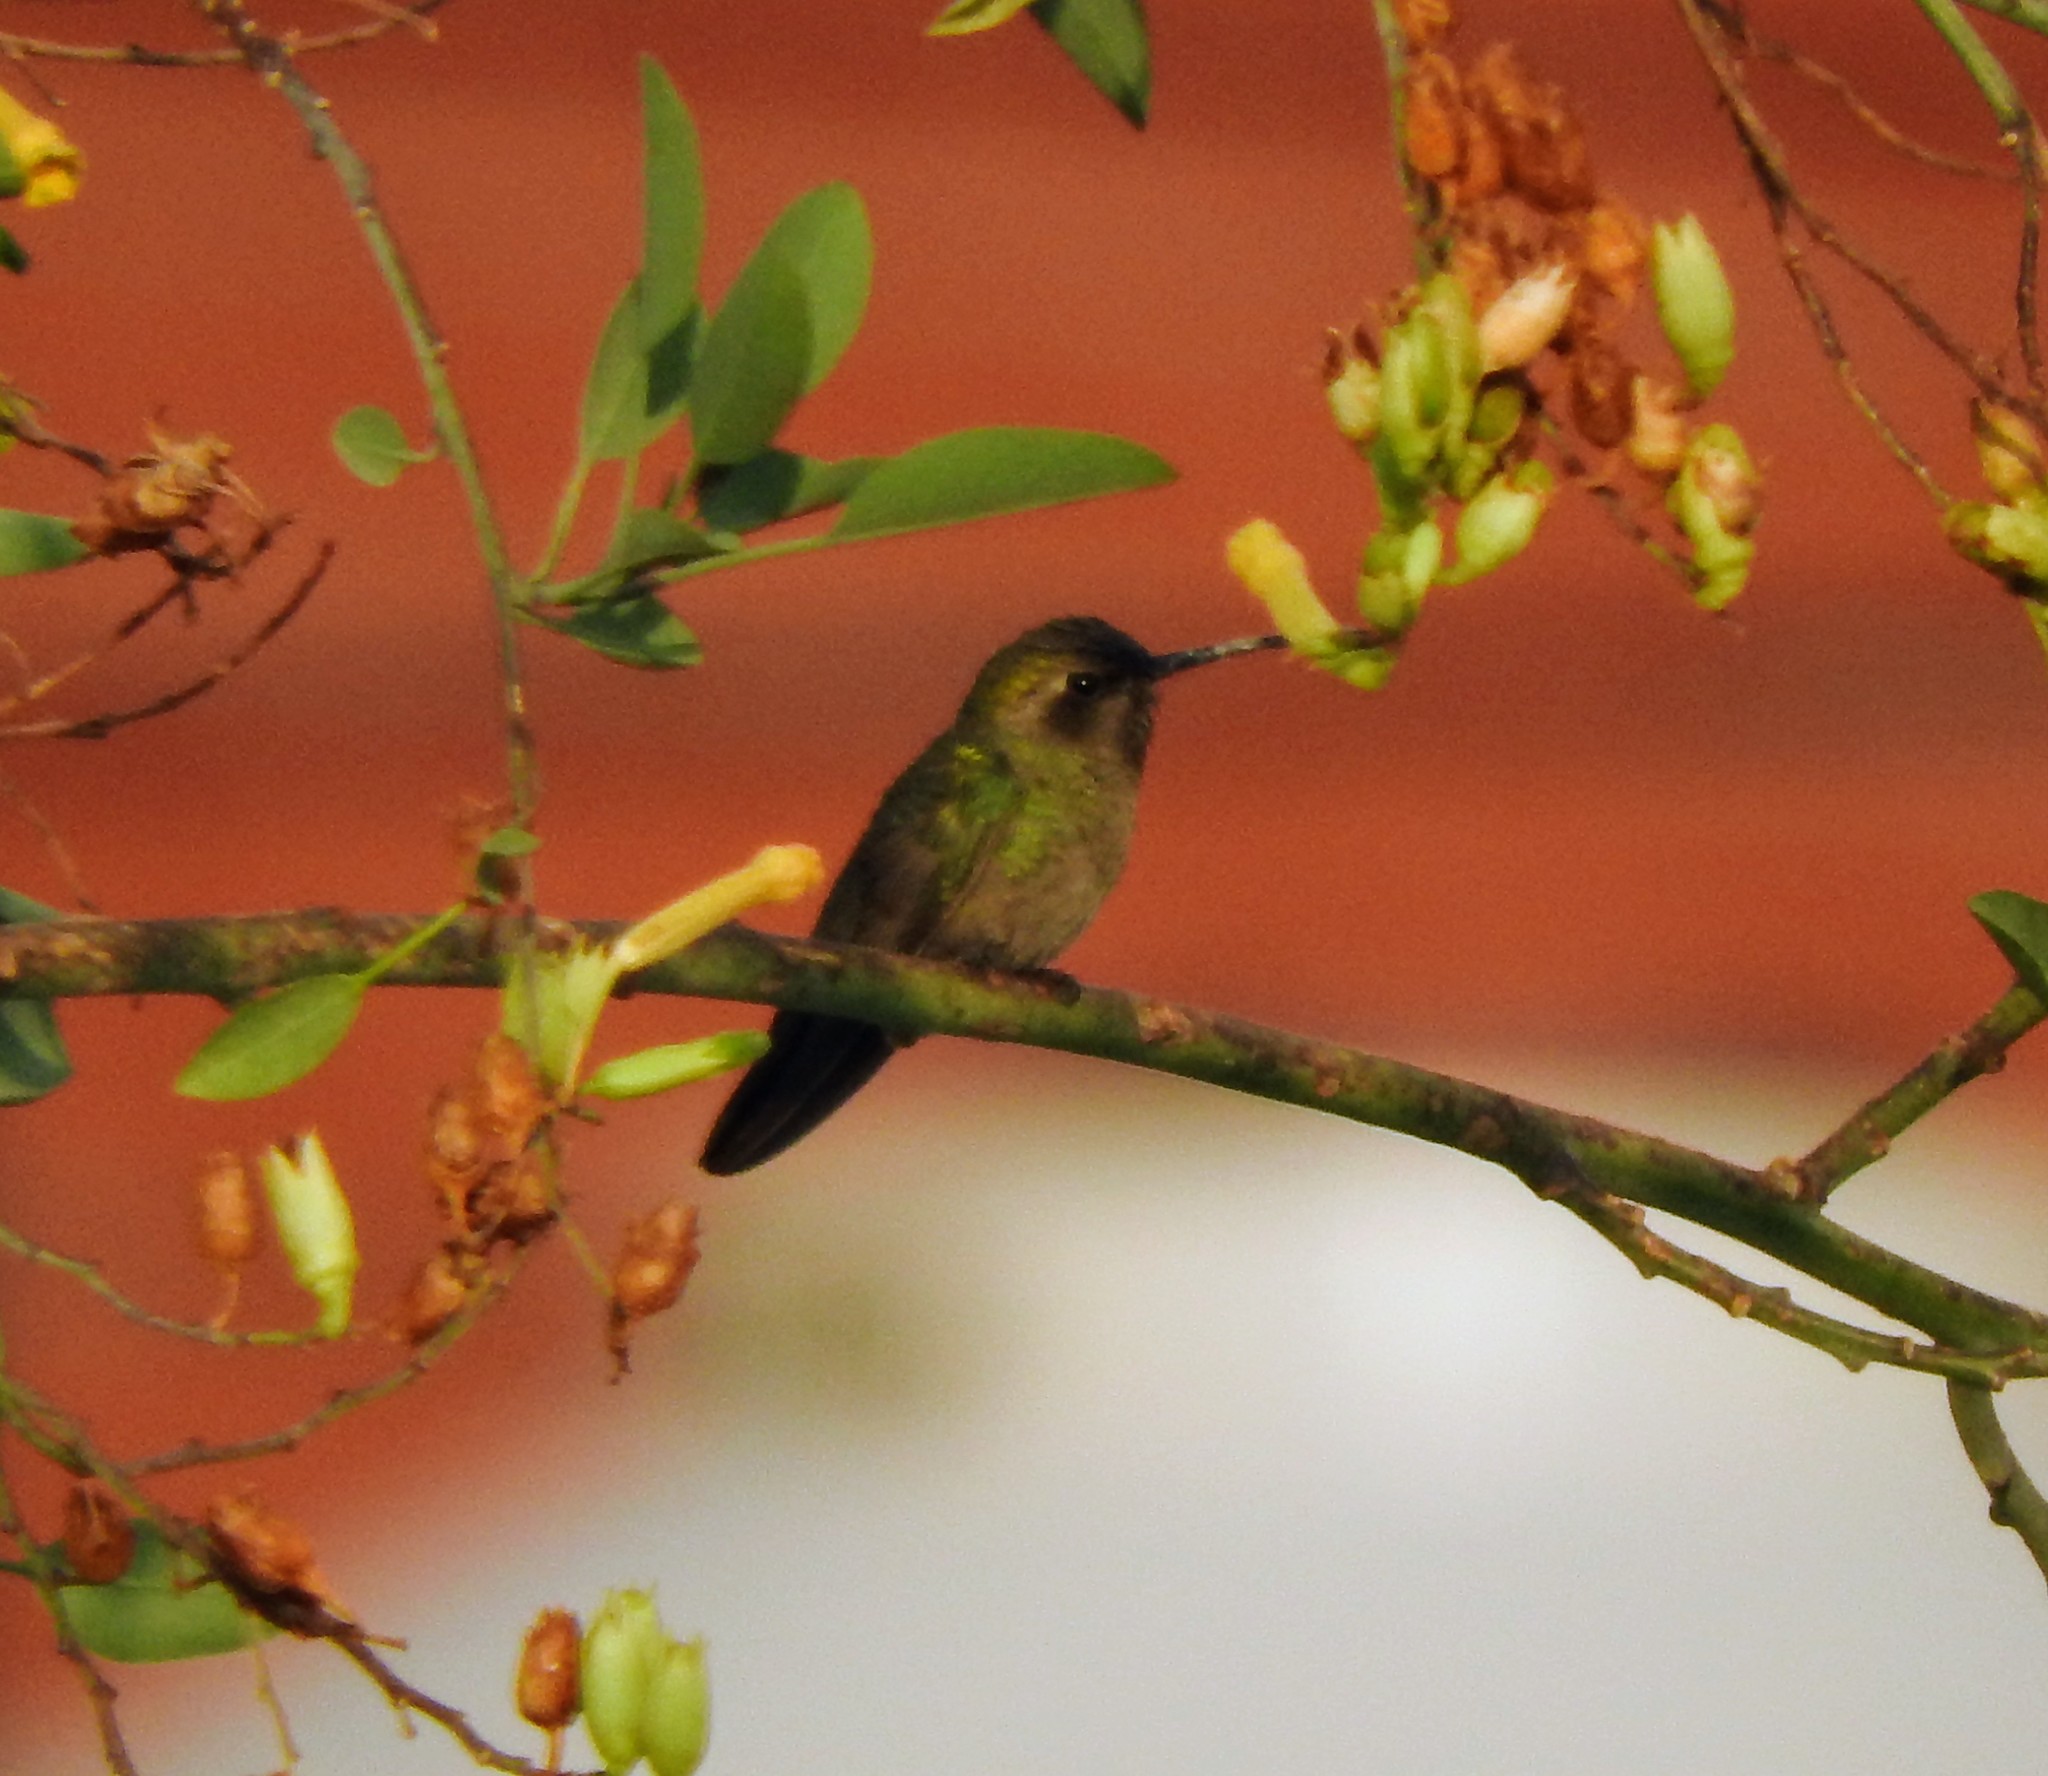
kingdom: Animalia
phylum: Chordata
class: Aves
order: Apodiformes
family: Trochilidae
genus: Cynanthus
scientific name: Cynanthus latirostris
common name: Broad-billed hummingbird
